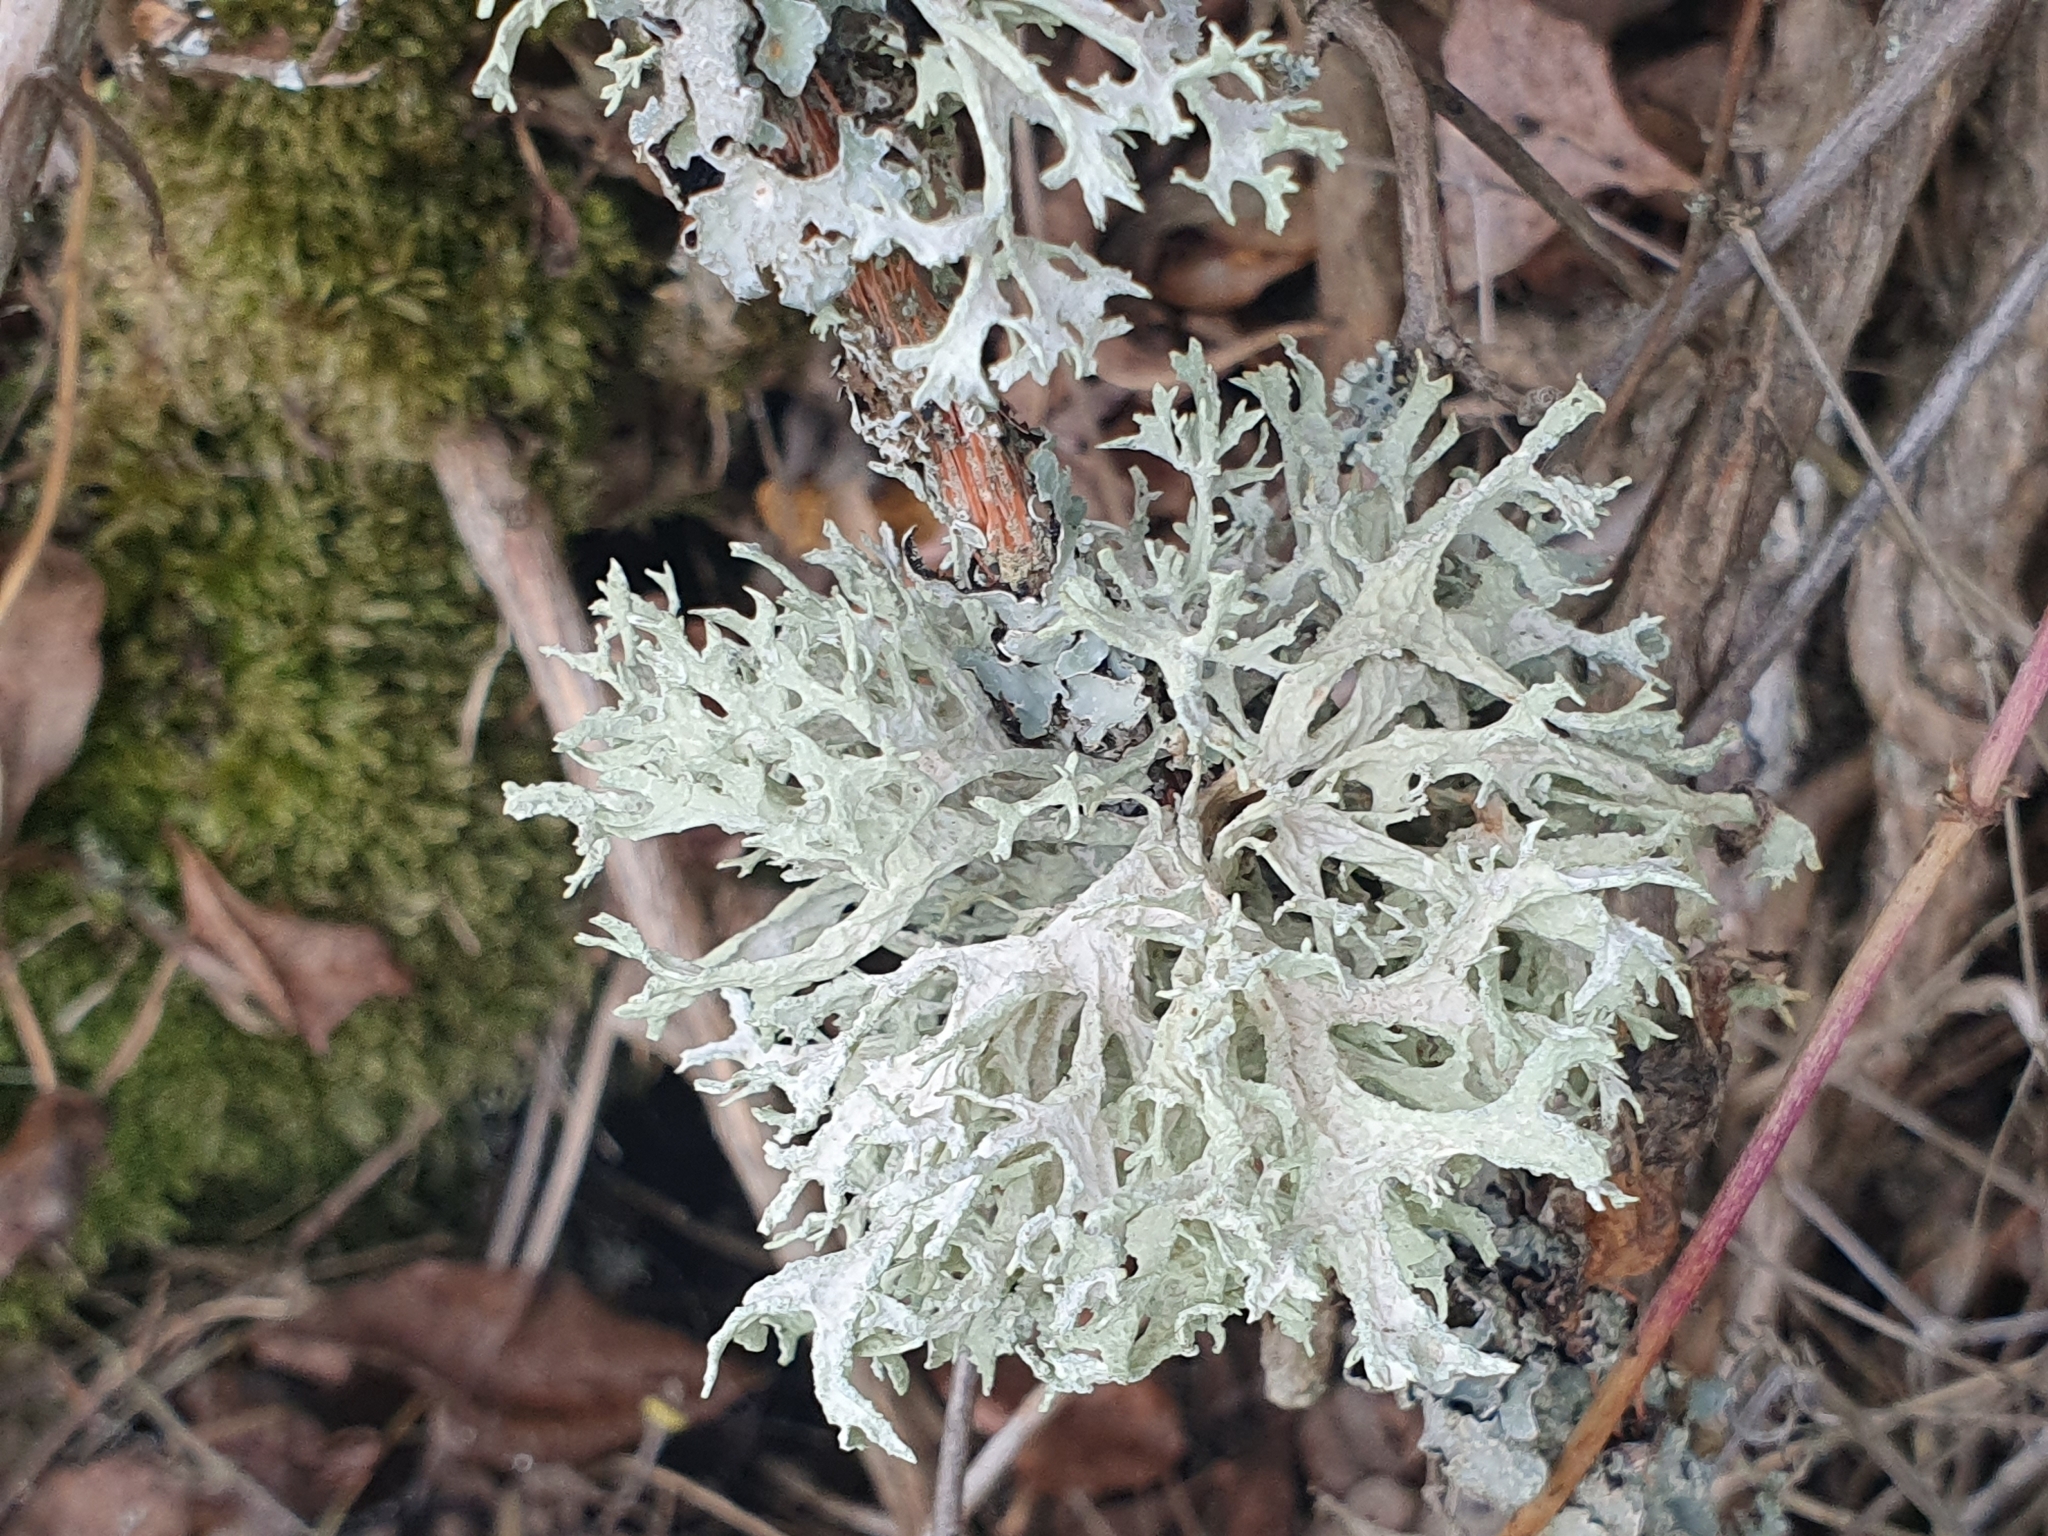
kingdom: Fungi
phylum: Ascomycota
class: Lecanoromycetes
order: Lecanorales
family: Parmeliaceae
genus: Evernia
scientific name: Evernia prunastri
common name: Oak moss
